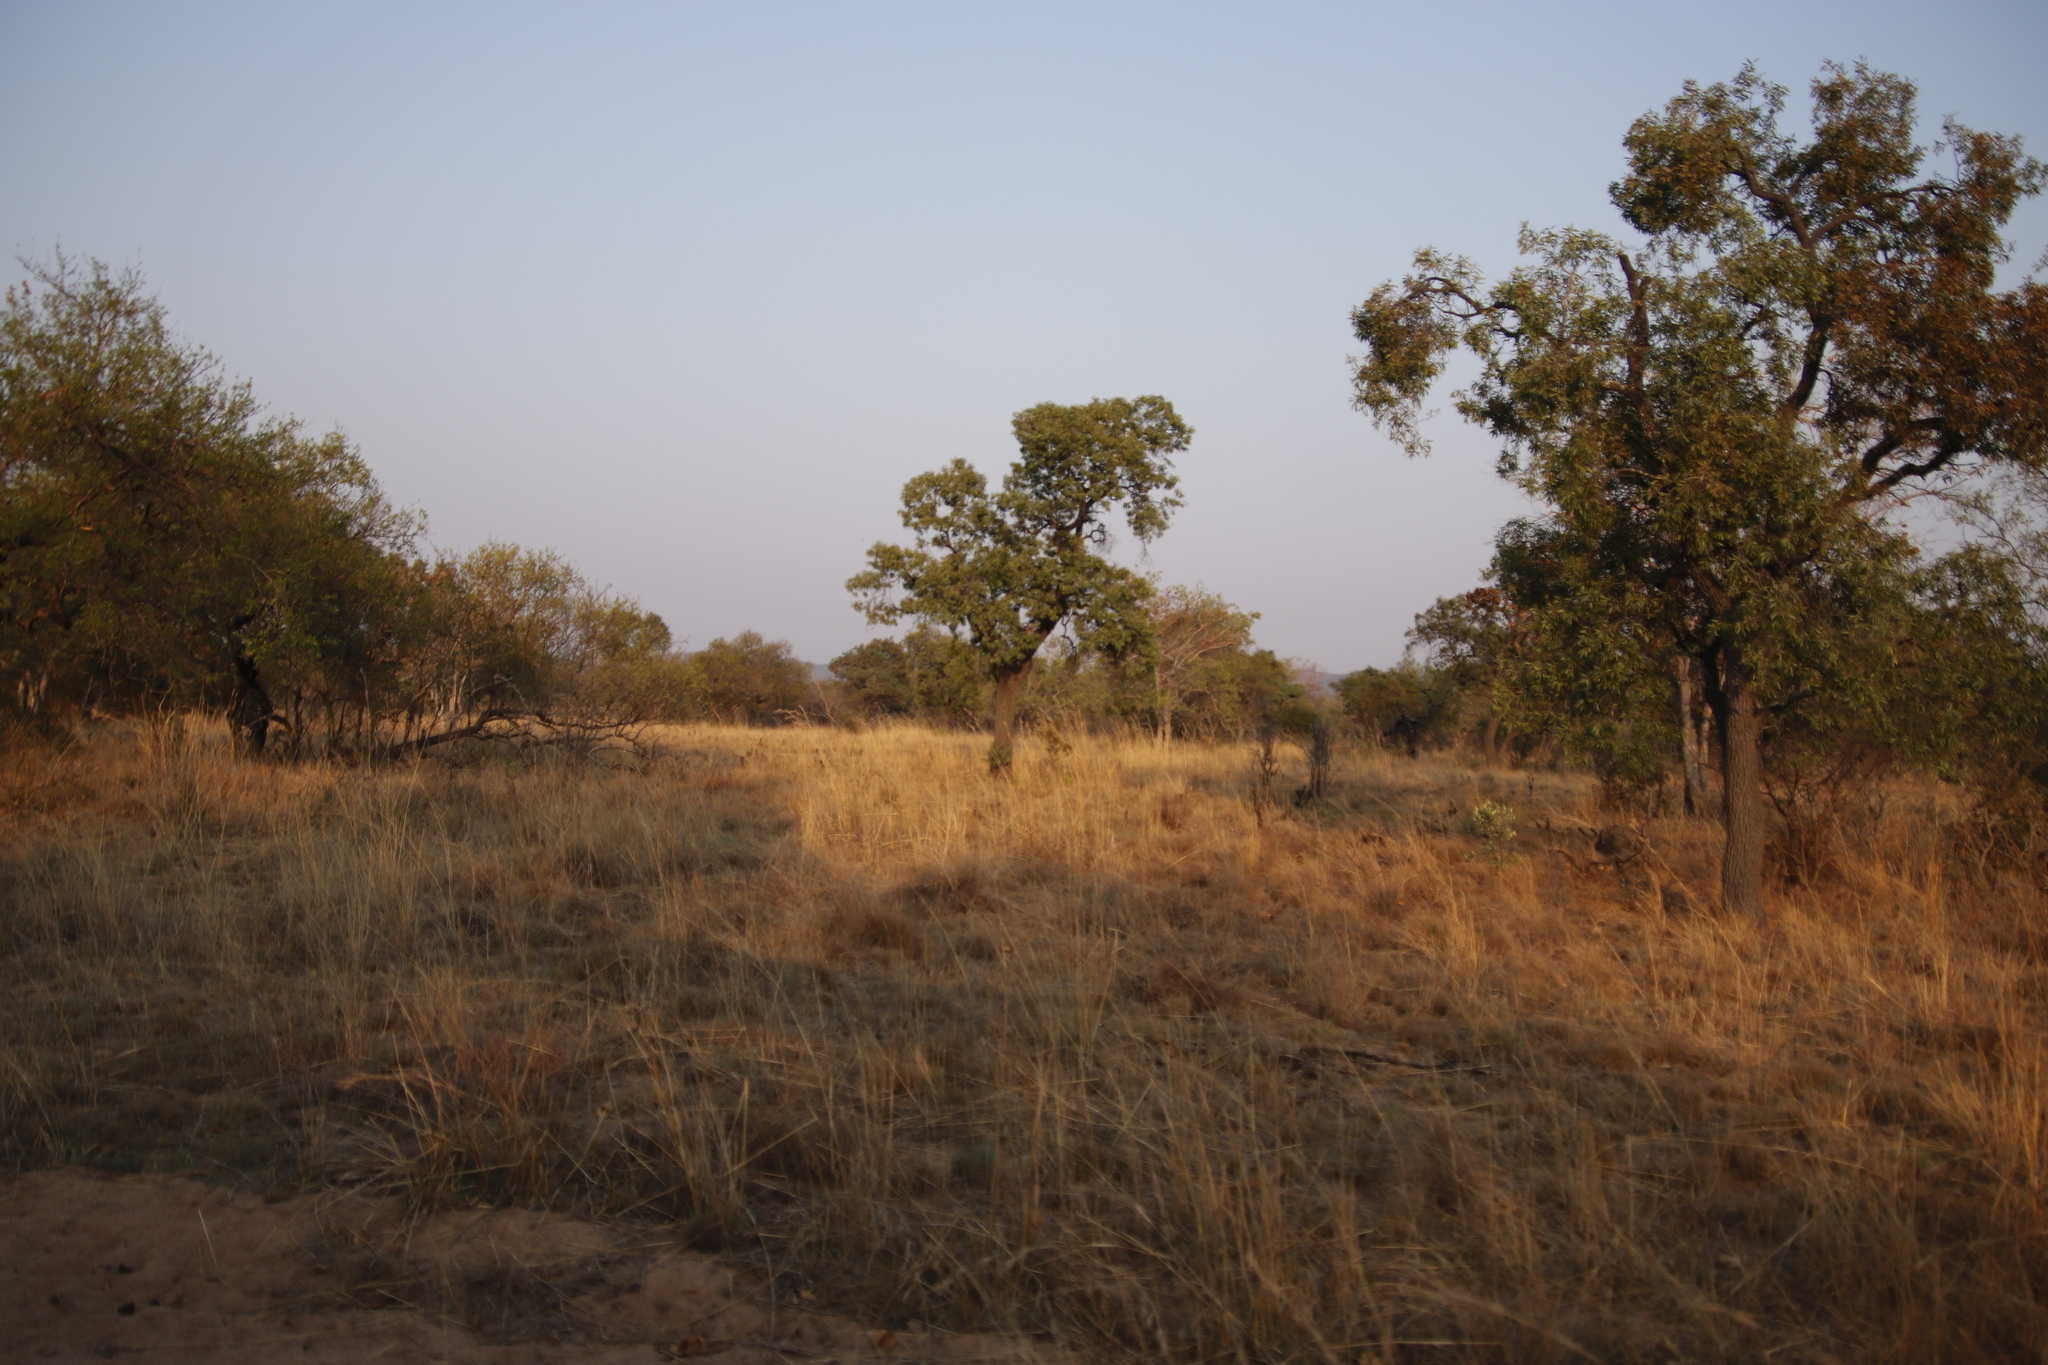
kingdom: Plantae
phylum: Tracheophyta
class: Magnoliopsida
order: Proteales
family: Proteaceae
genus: Faurea
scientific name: Faurea saligna
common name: African bean
